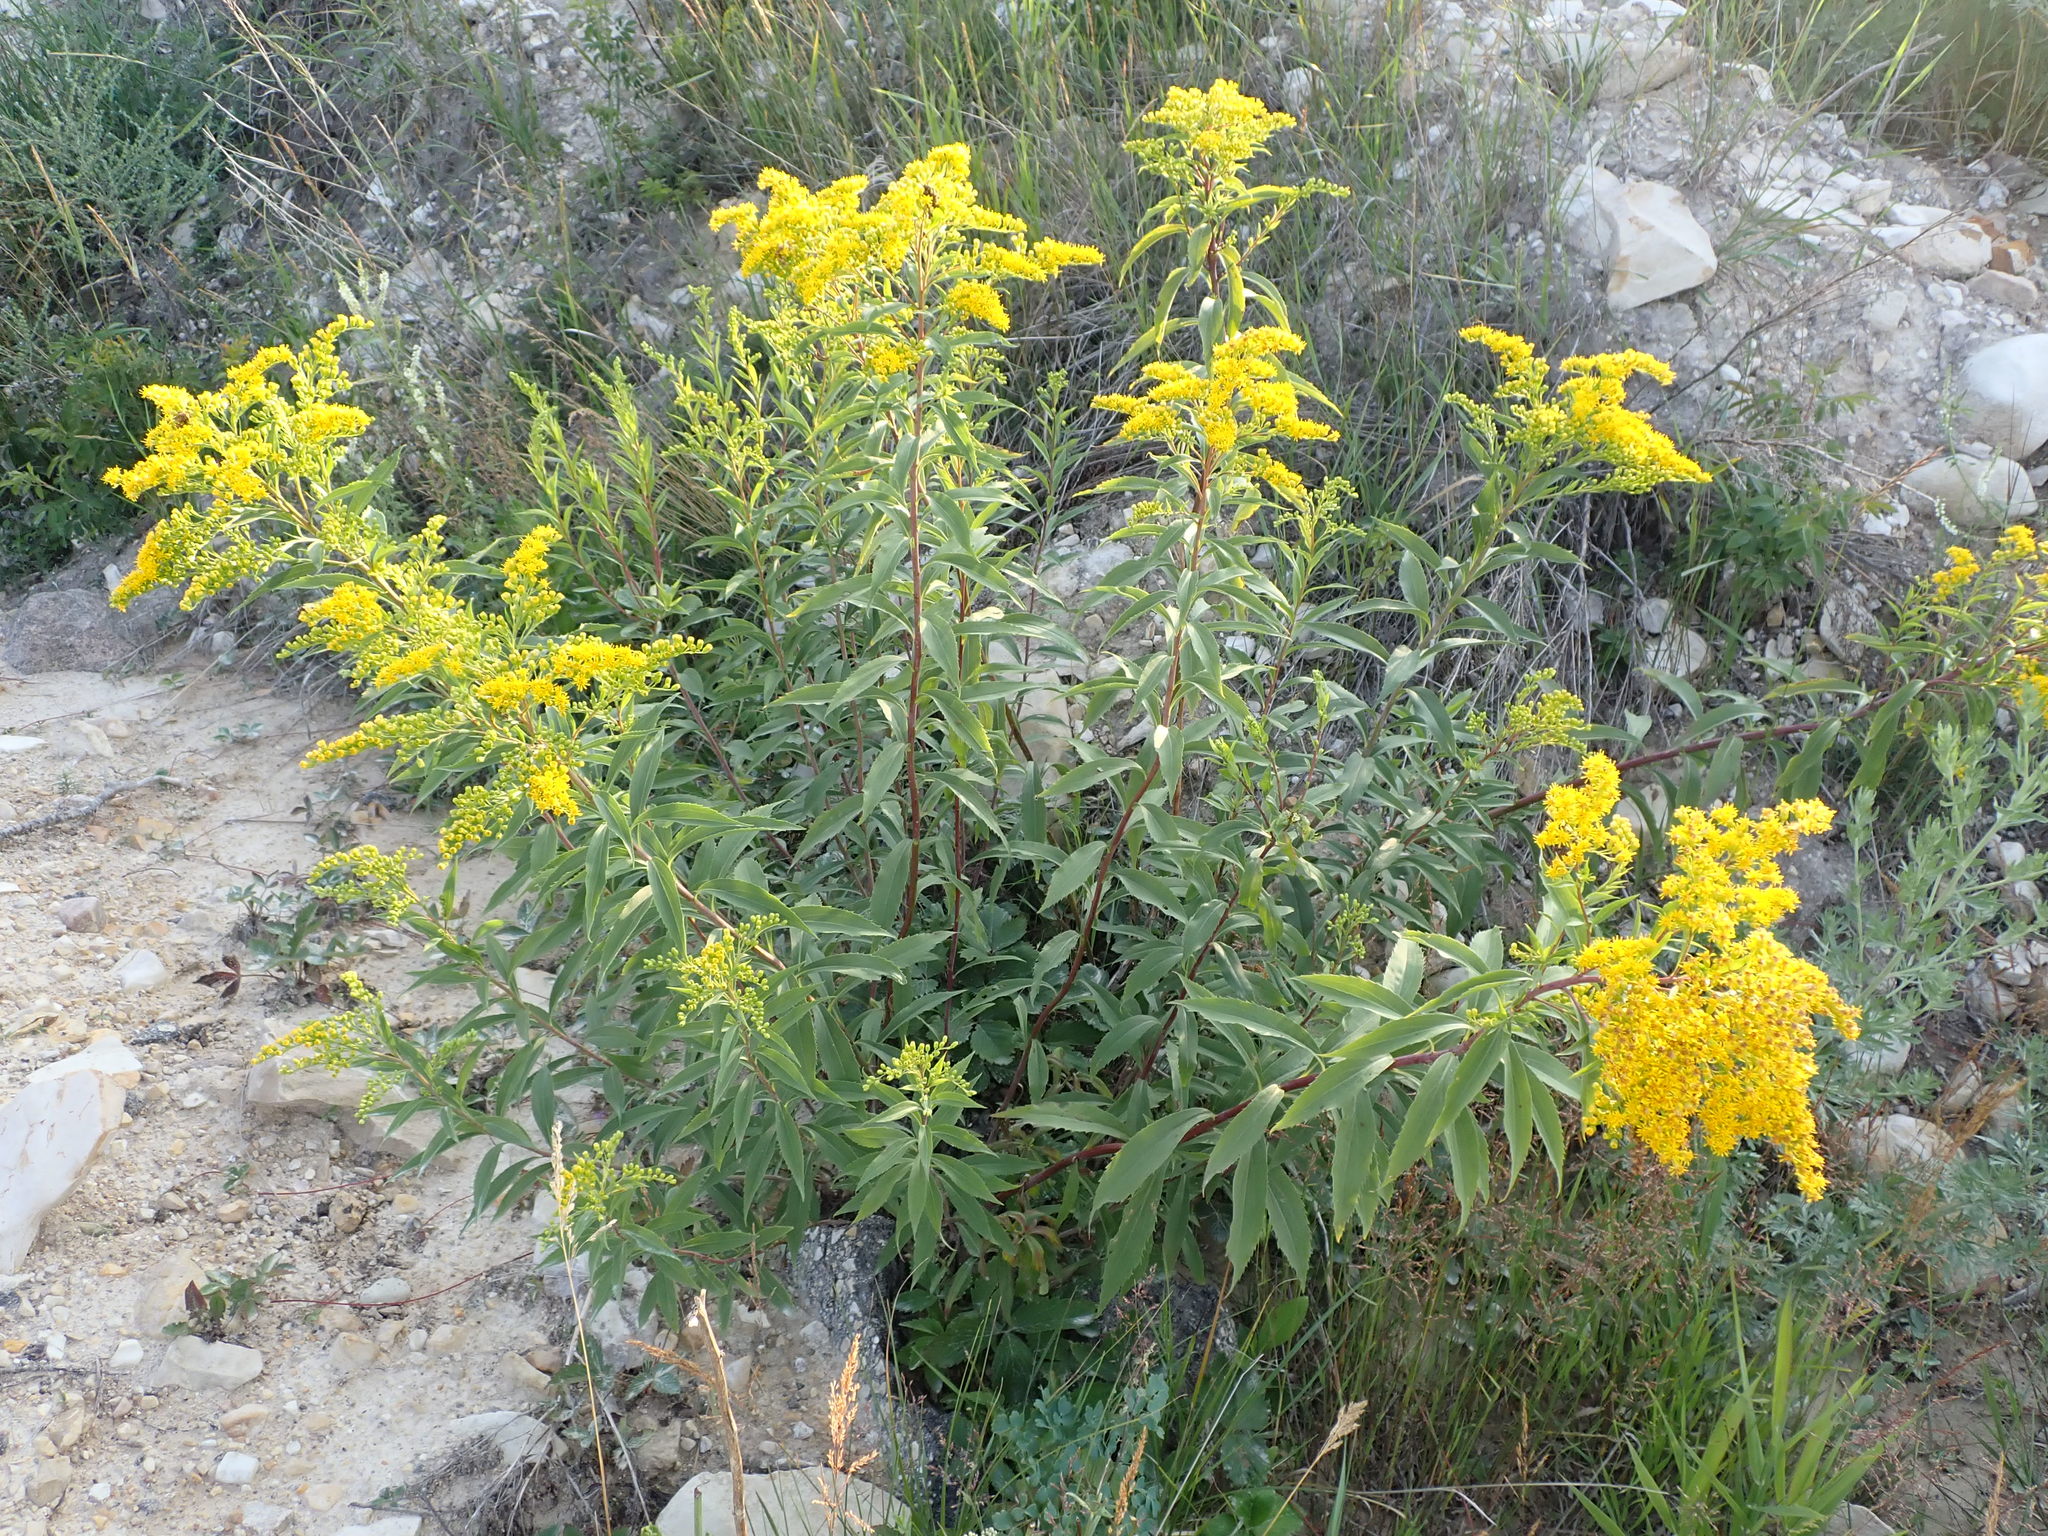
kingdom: Plantae
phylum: Tracheophyta
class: Magnoliopsida
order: Asterales
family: Asteraceae
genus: Solidago
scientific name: Solidago canadensis
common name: Canada goldenrod
